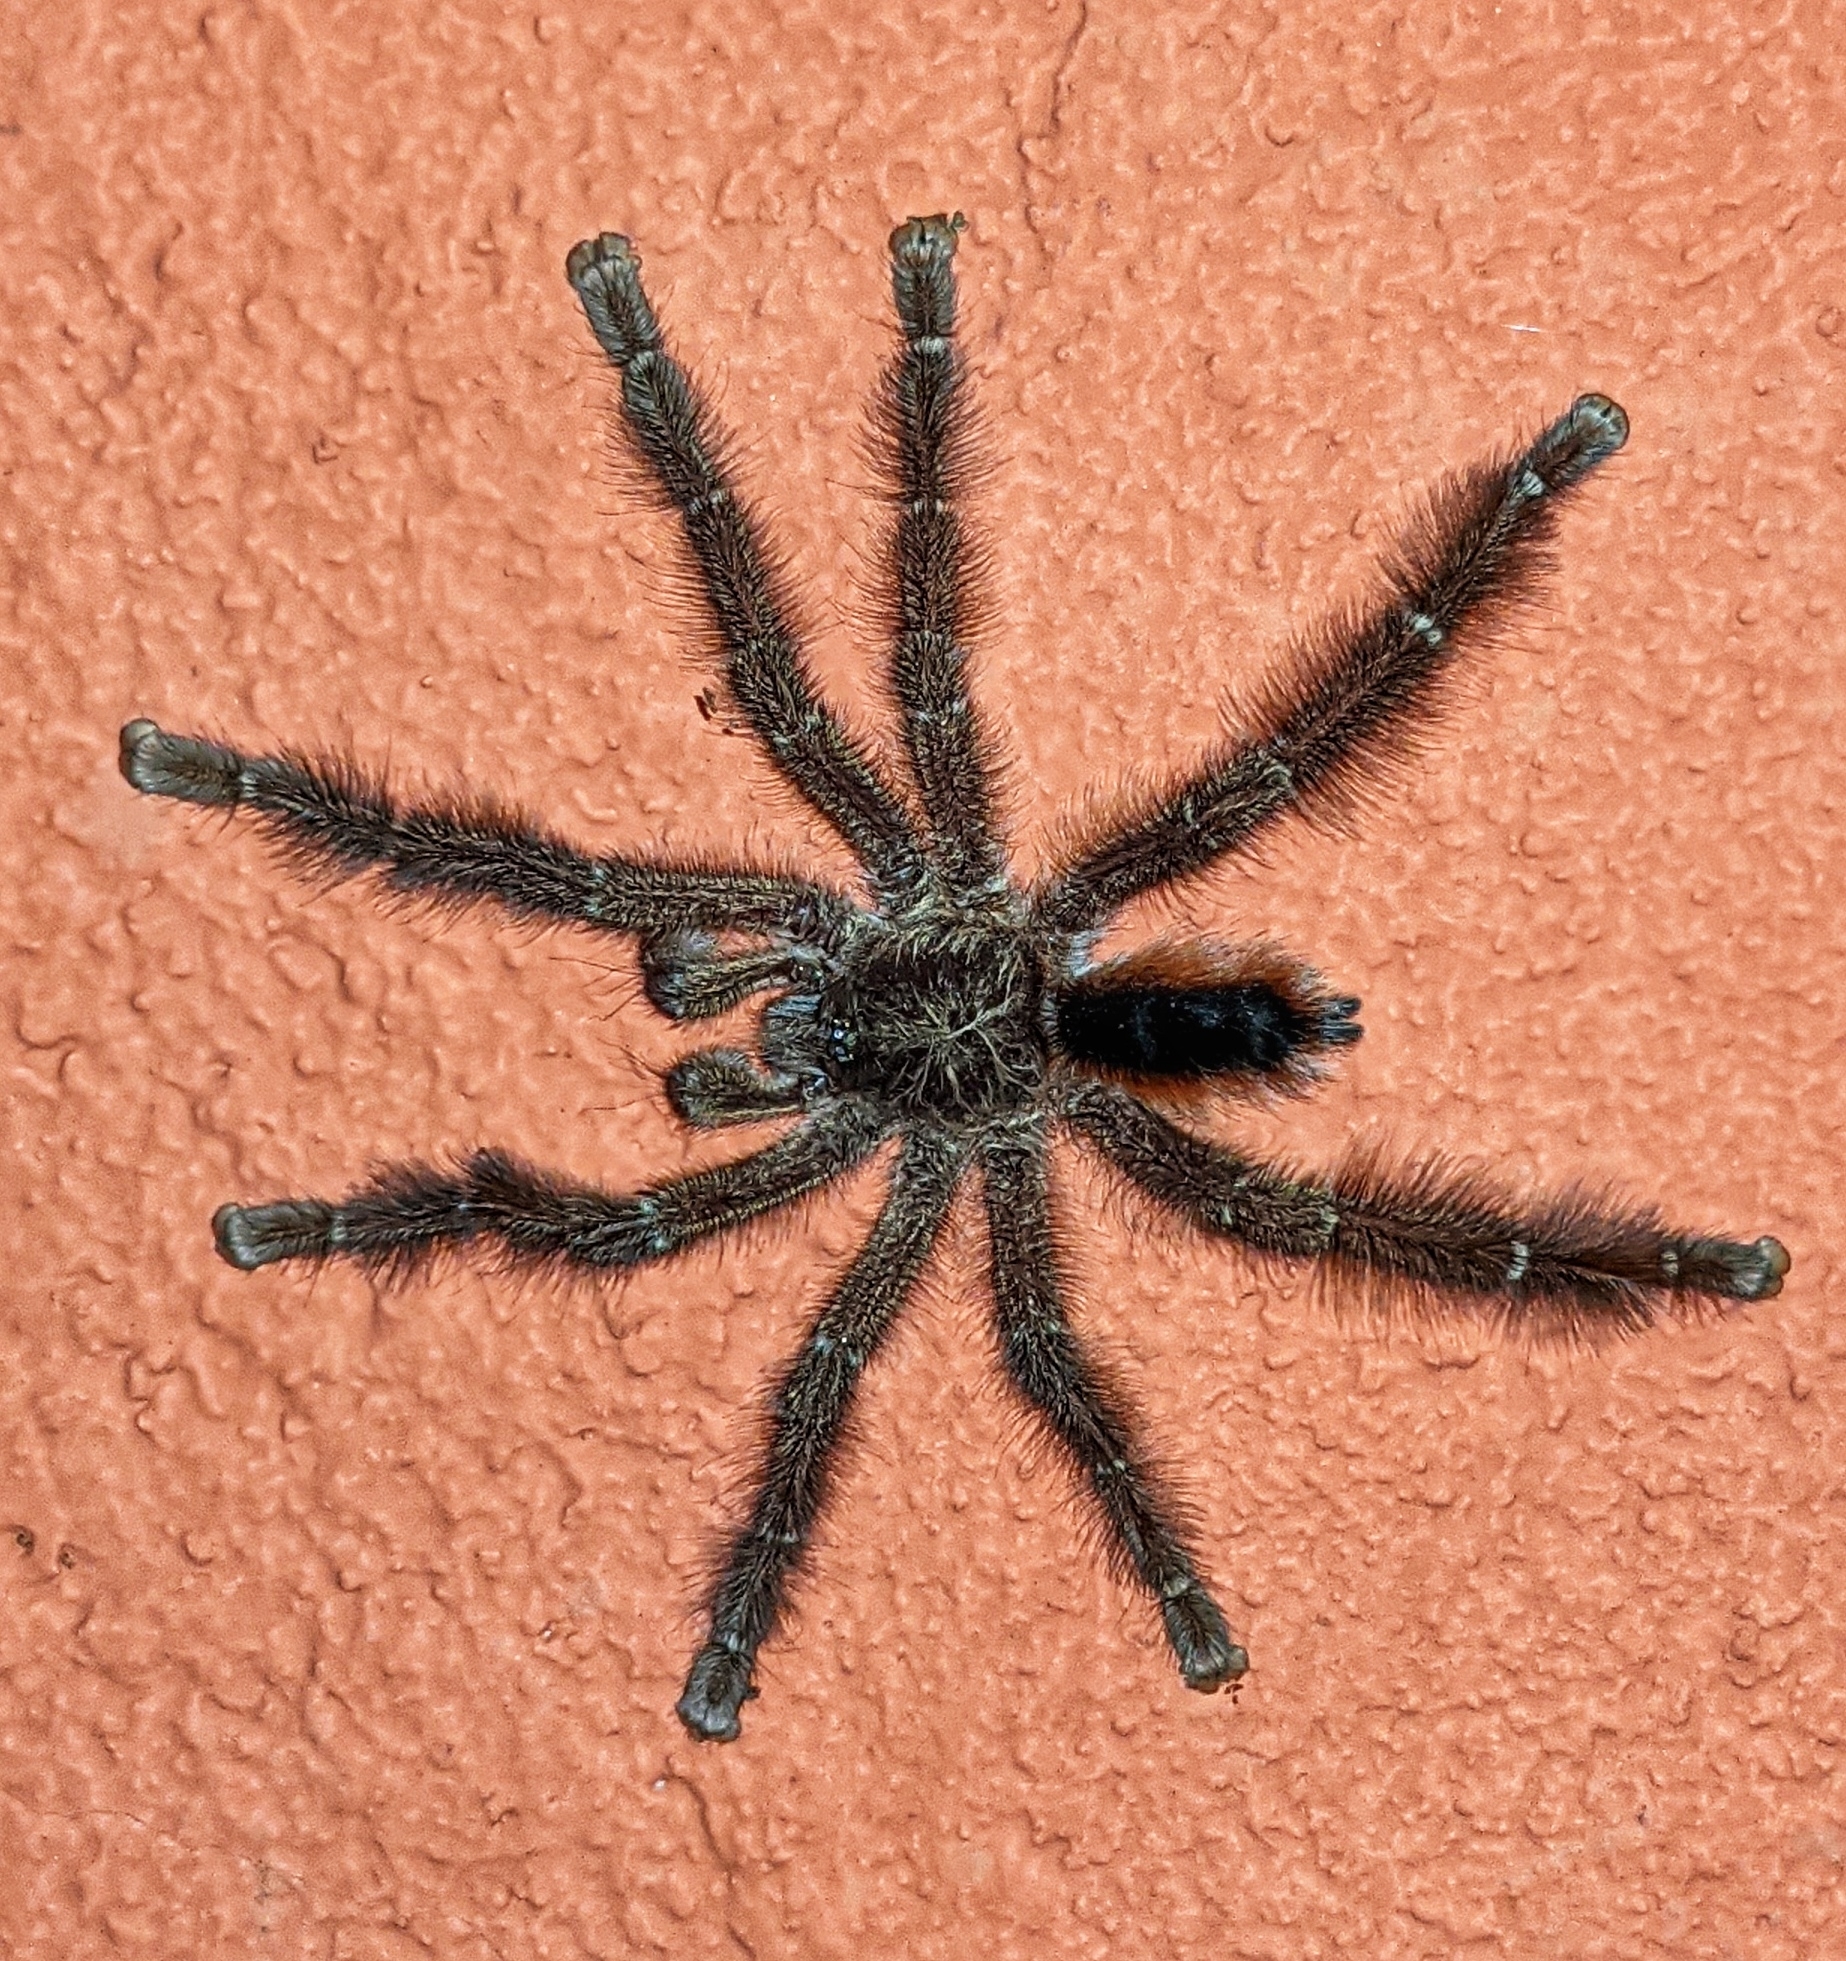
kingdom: Animalia
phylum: Arthropoda
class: Arachnida
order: Araneae
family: Theraphosidae
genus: Avicularia
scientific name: Avicularia hirschii
